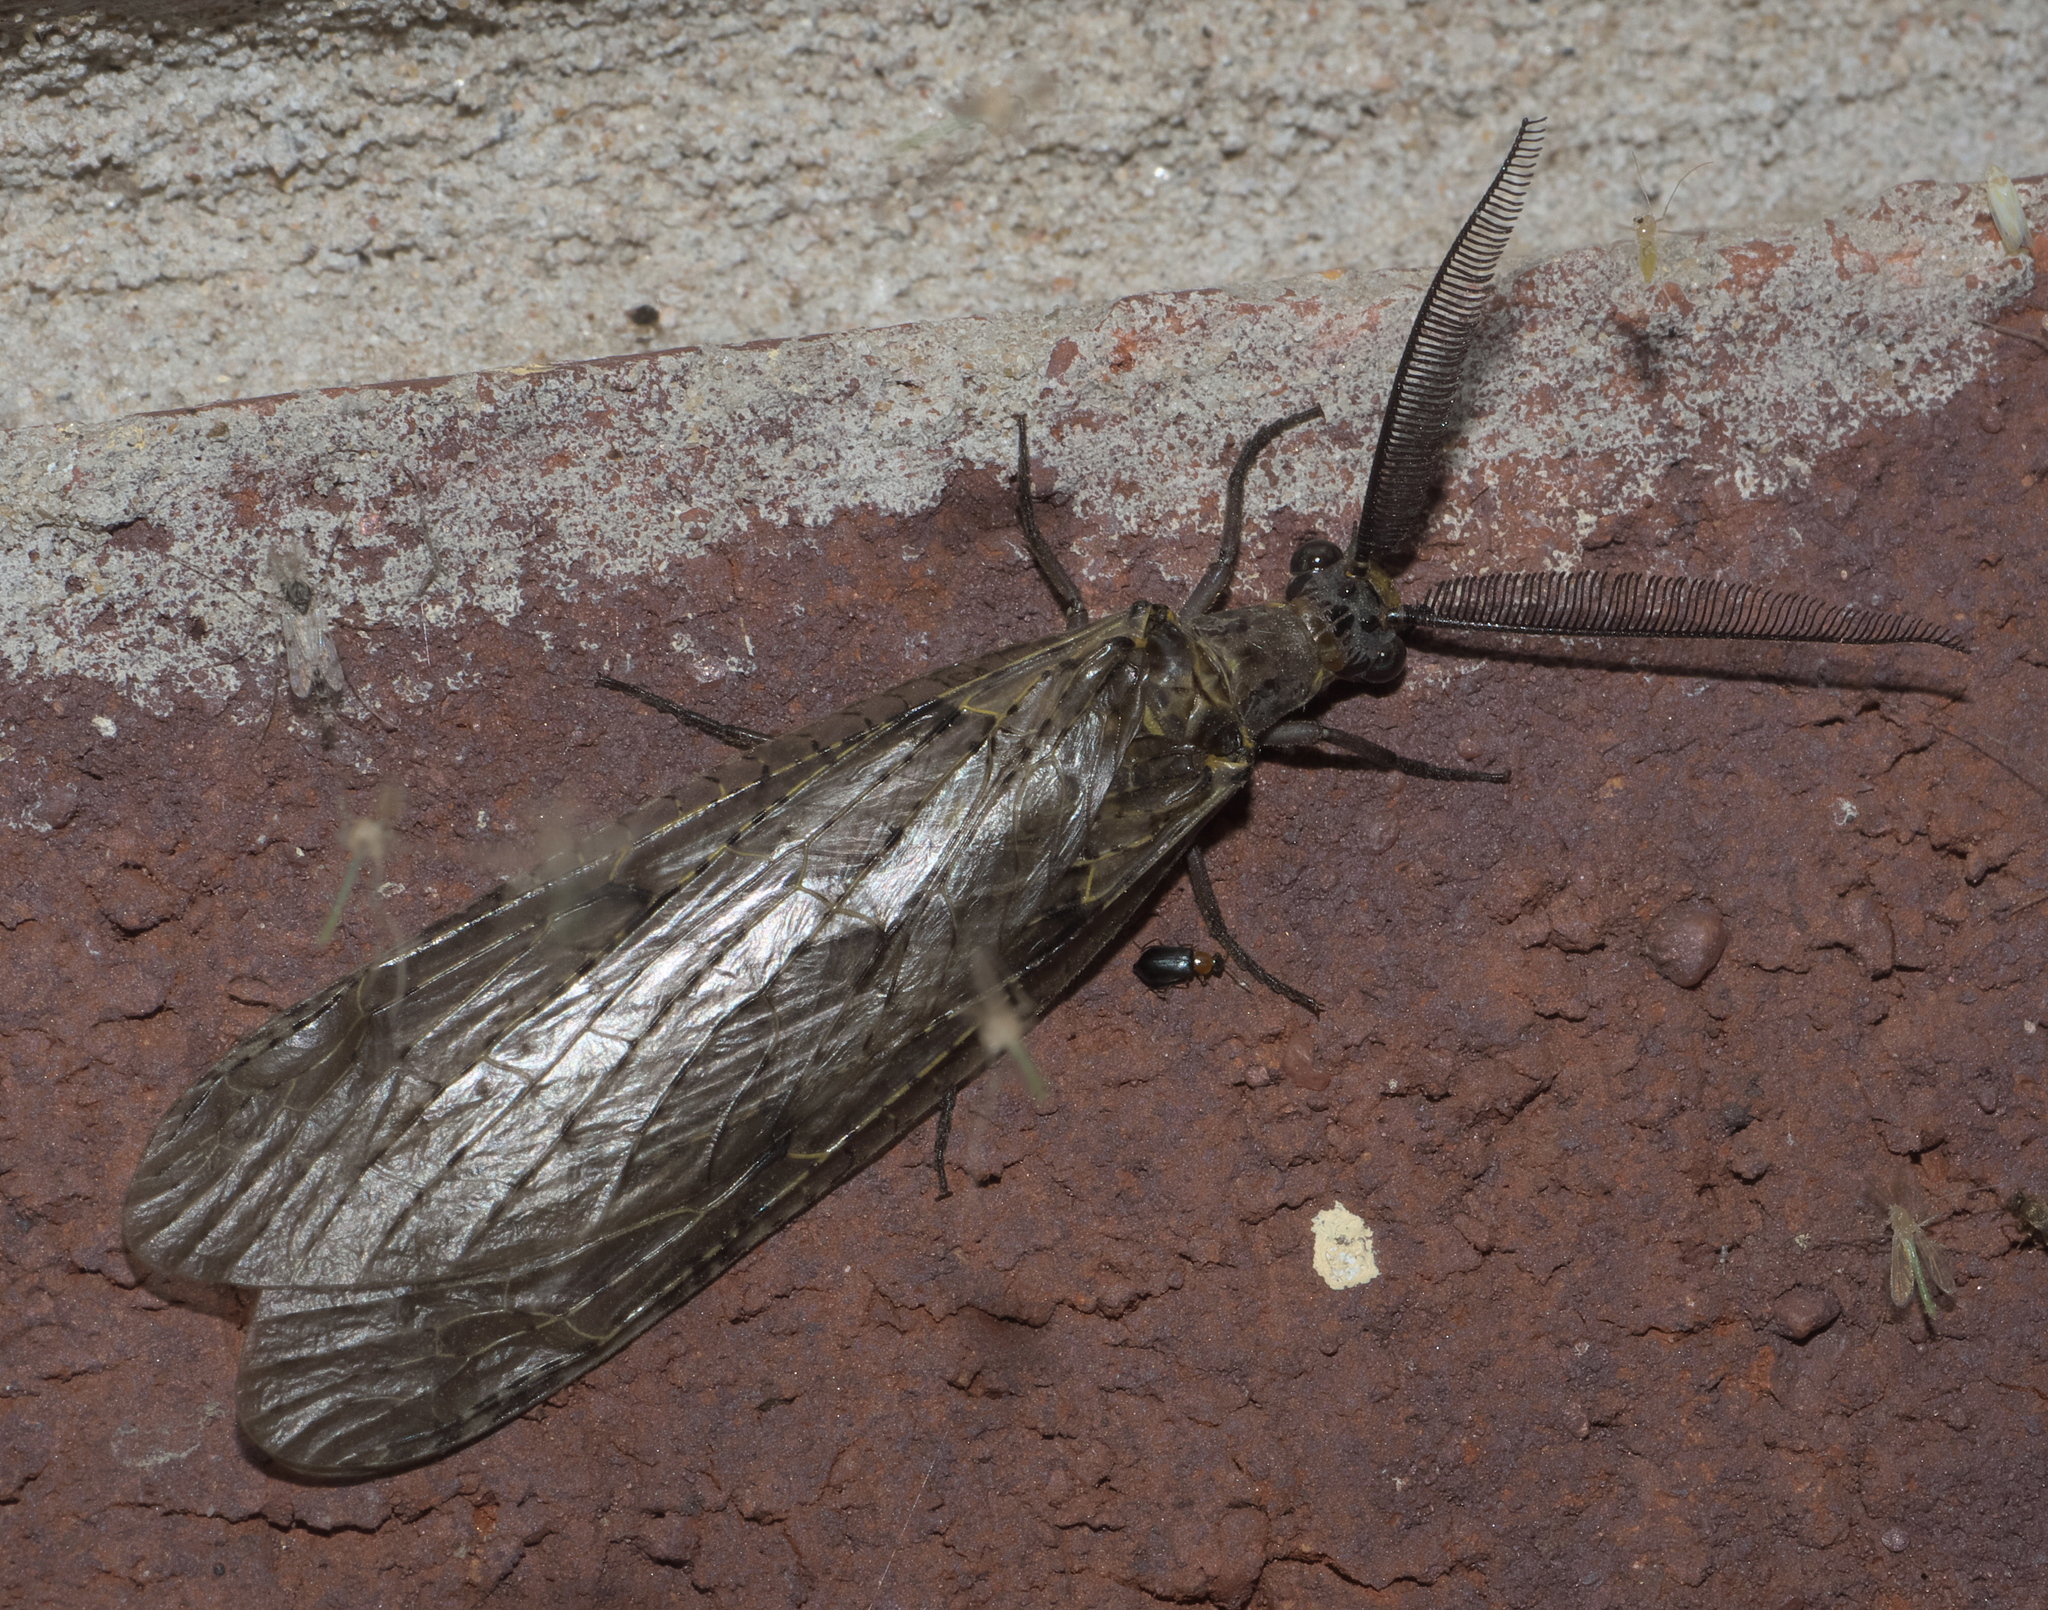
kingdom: Animalia
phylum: Arthropoda
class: Insecta
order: Megaloptera
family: Corydalidae
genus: Chauliodes
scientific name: Chauliodes rastricornis
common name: Spring fishfly
